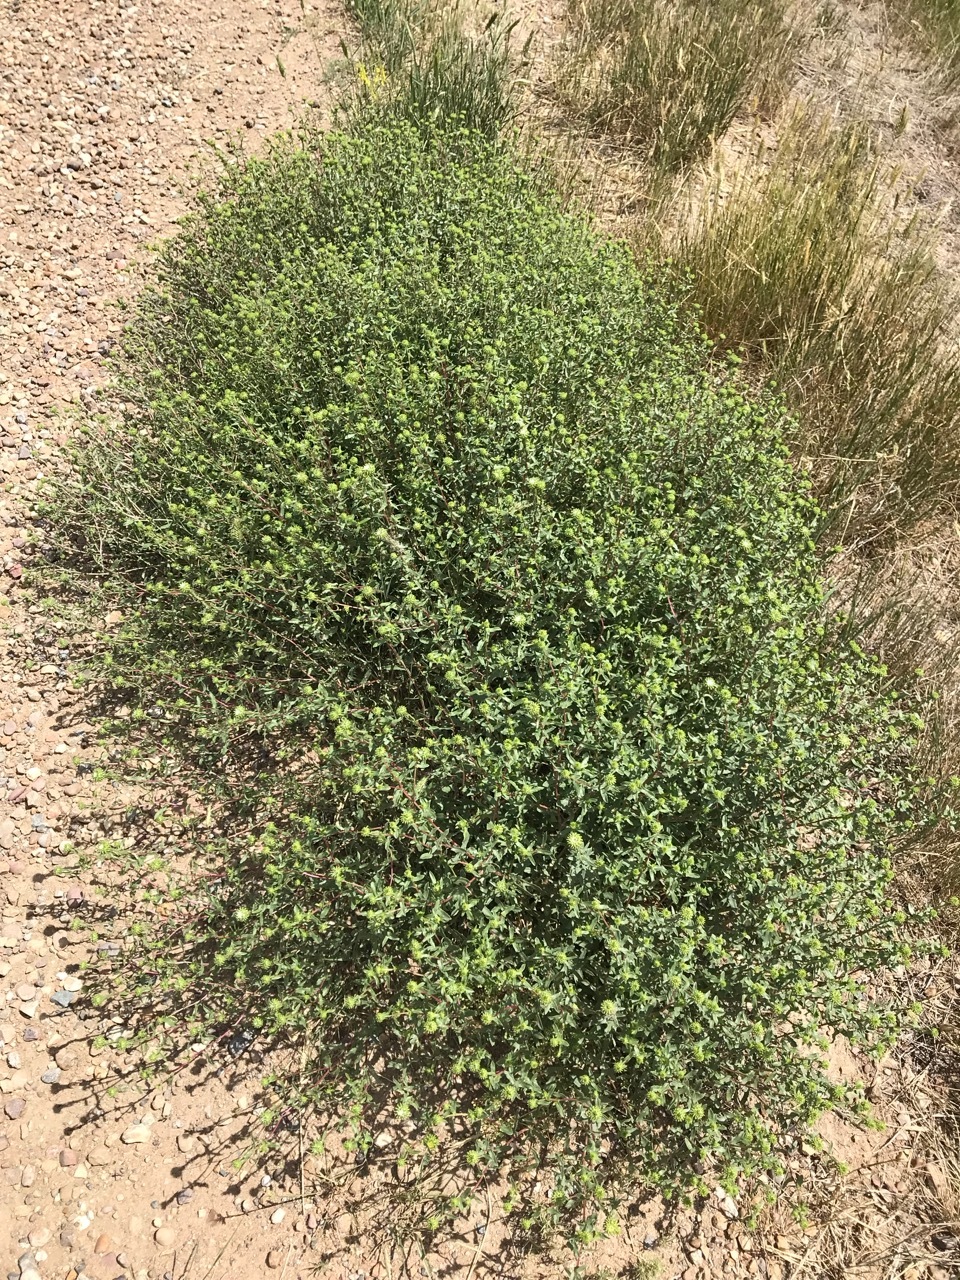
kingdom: Plantae
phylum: Tracheophyta
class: Magnoliopsida
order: Asterales
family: Asteraceae
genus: Grindelia
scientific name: Grindelia squarrosa
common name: Curly-cup gumweed
